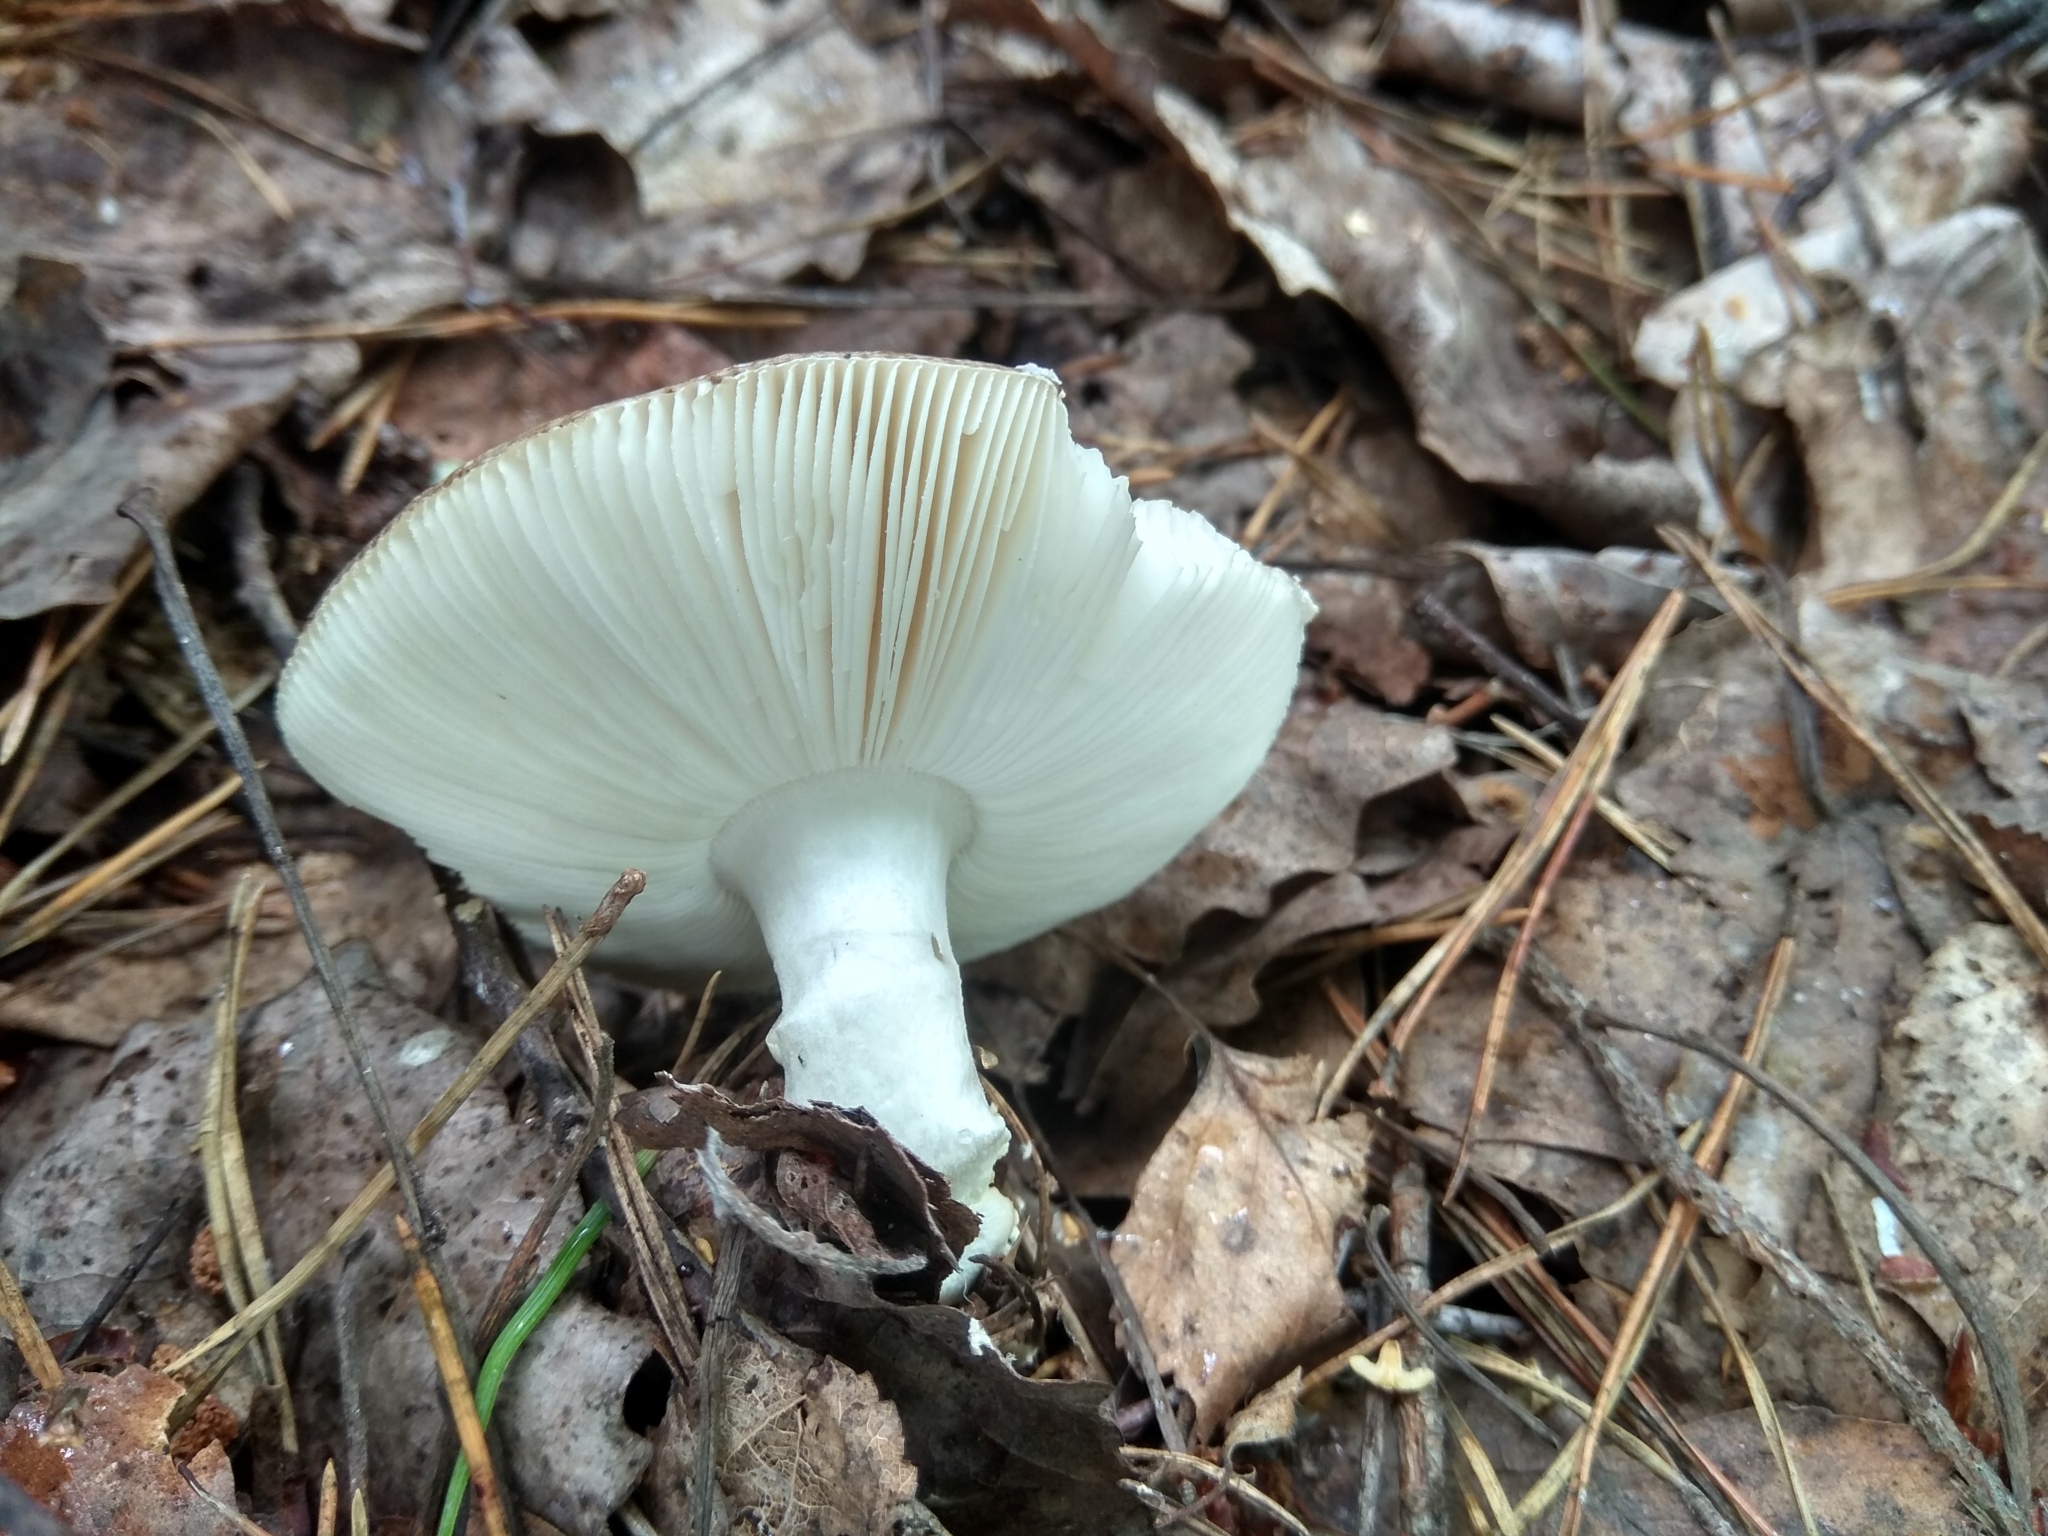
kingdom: Fungi
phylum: Basidiomycota
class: Agaricomycetes
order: Agaricales
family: Amanitaceae
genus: Amanita
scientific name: Amanita pantherina
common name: Panthercap
